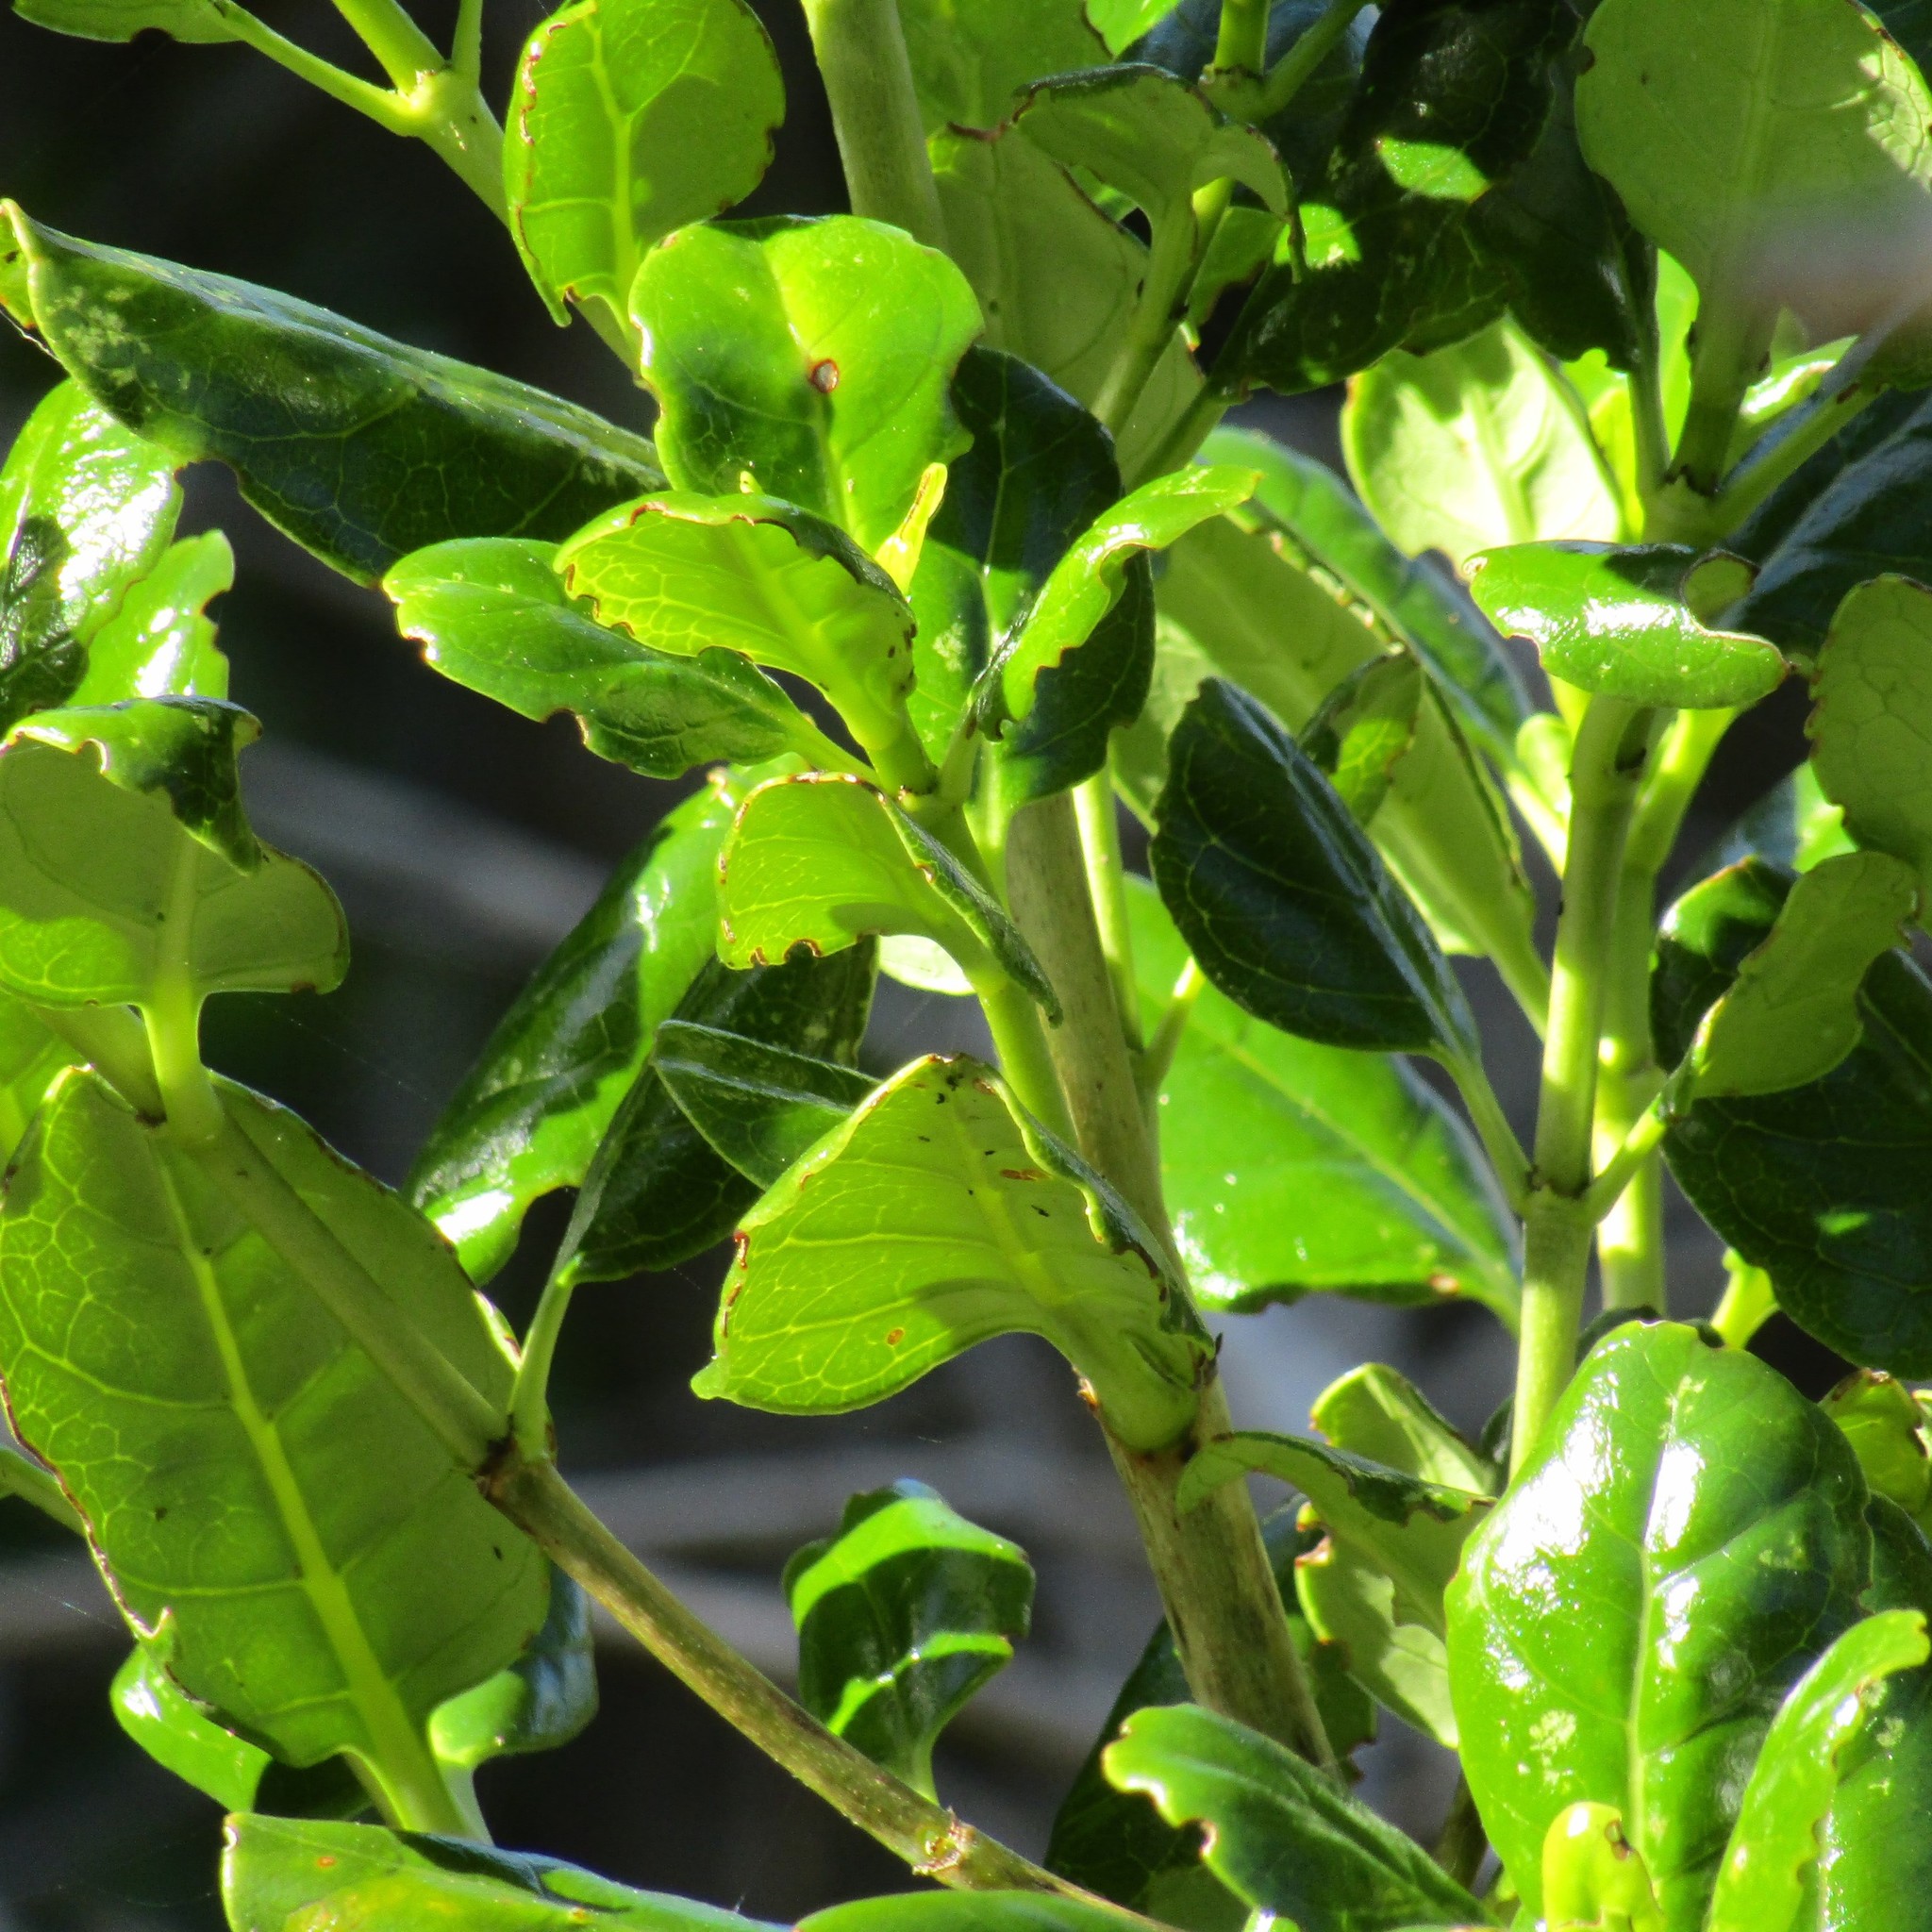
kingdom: Plantae
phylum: Tracheophyta
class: Magnoliopsida
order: Gentianales
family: Rubiaceae
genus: Coprosma
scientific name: Coprosma repens
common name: Tree bedstraw
